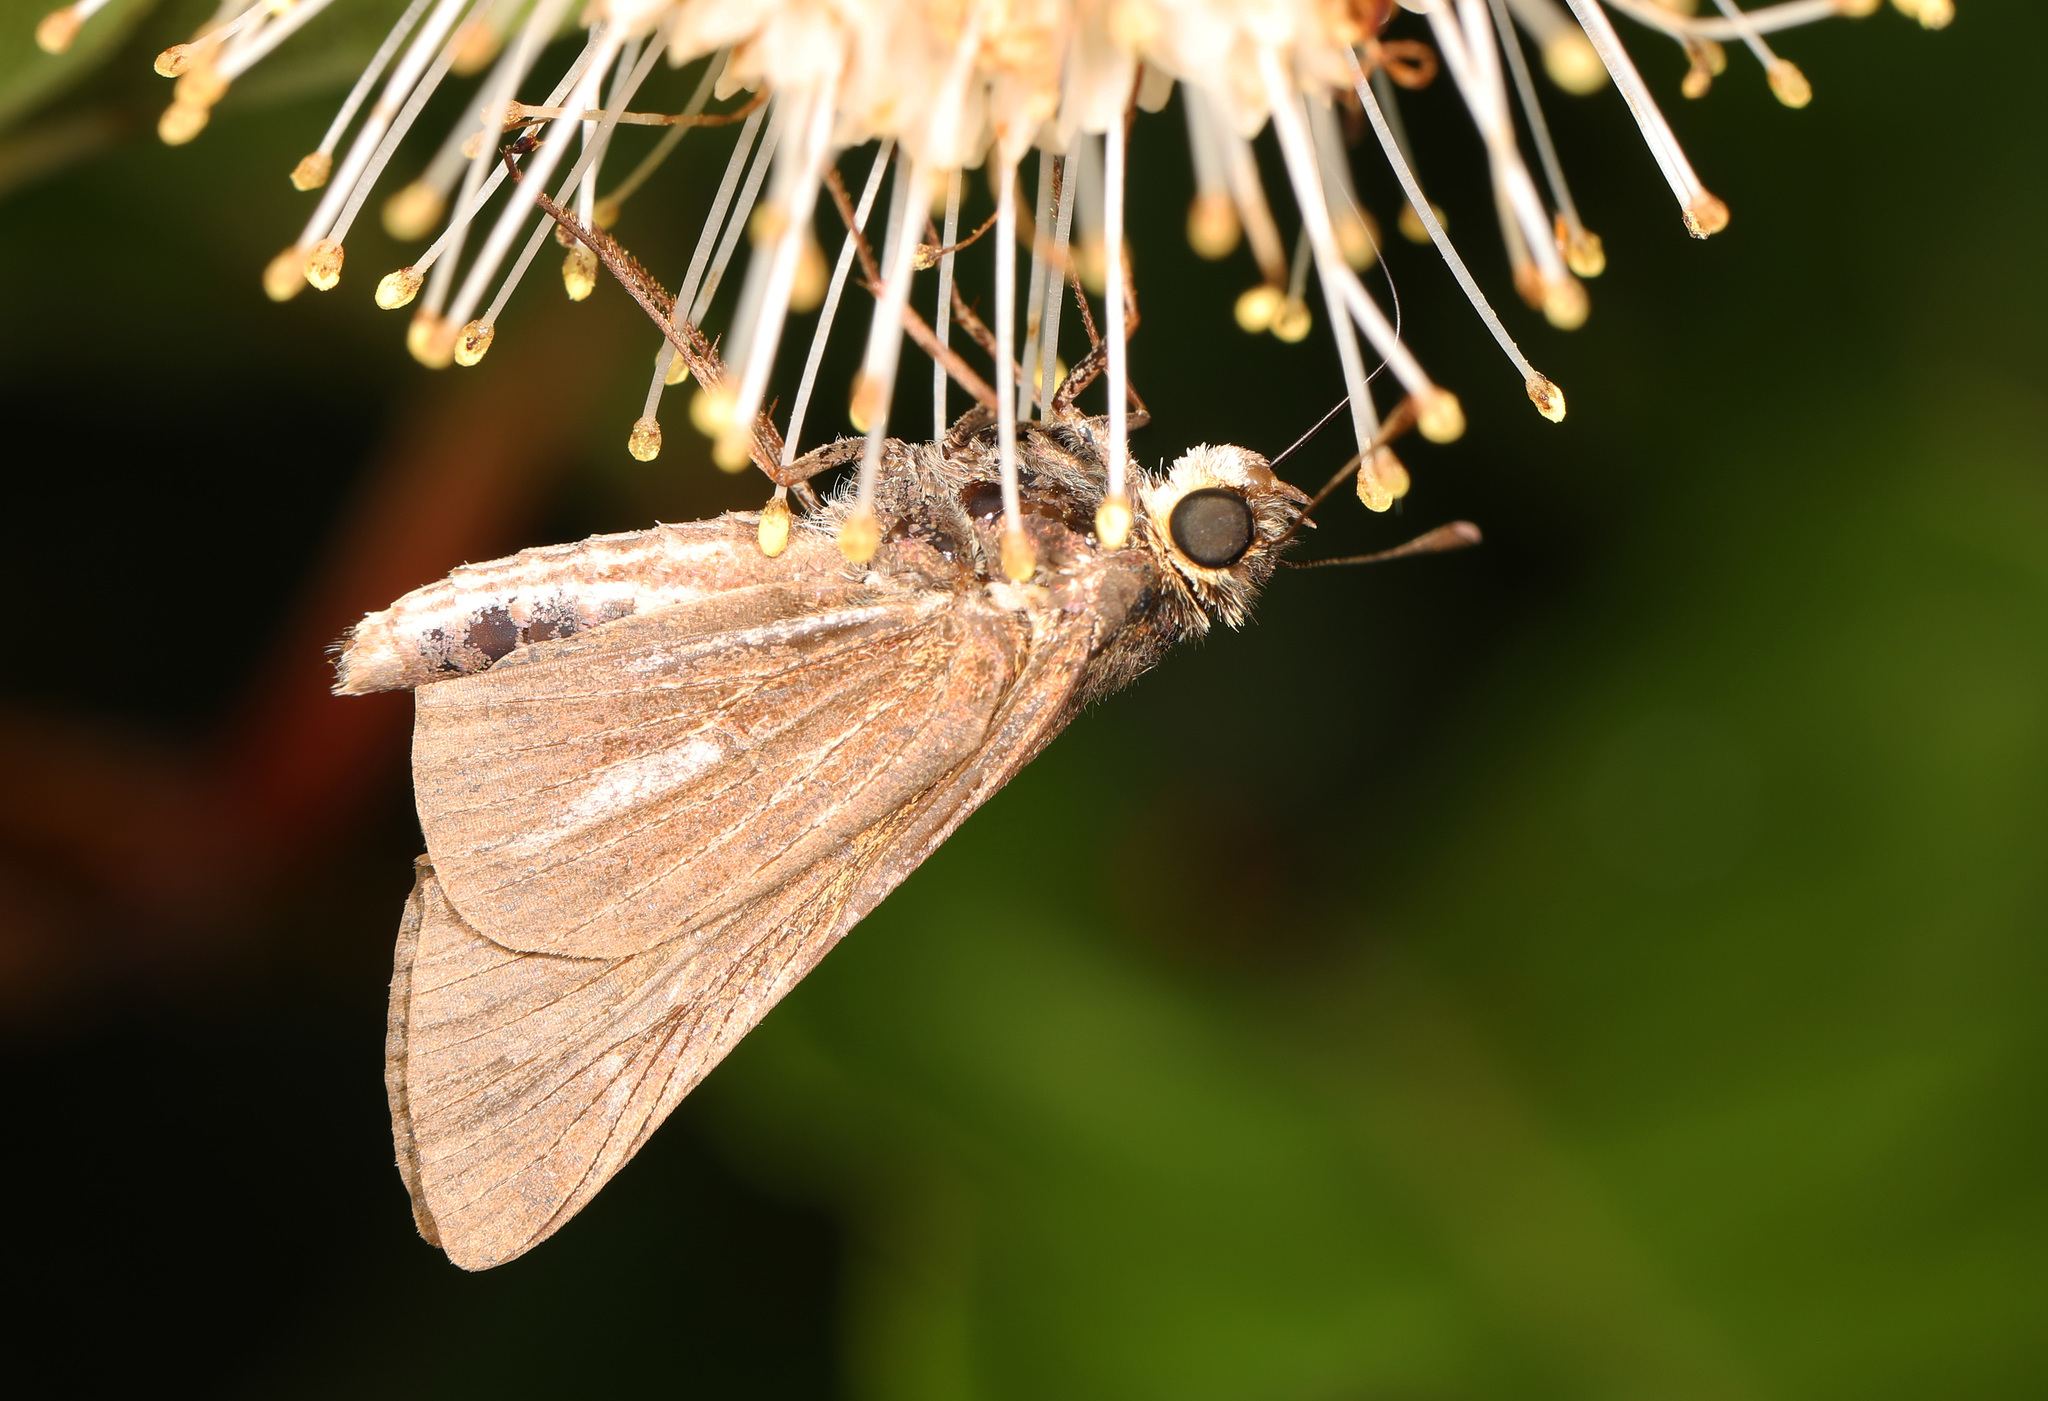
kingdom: Animalia
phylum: Arthropoda
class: Insecta
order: Lepidoptera
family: Hesperiidae
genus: Panoquina
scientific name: Panoquina panoquin
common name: Salt marsh skipper
